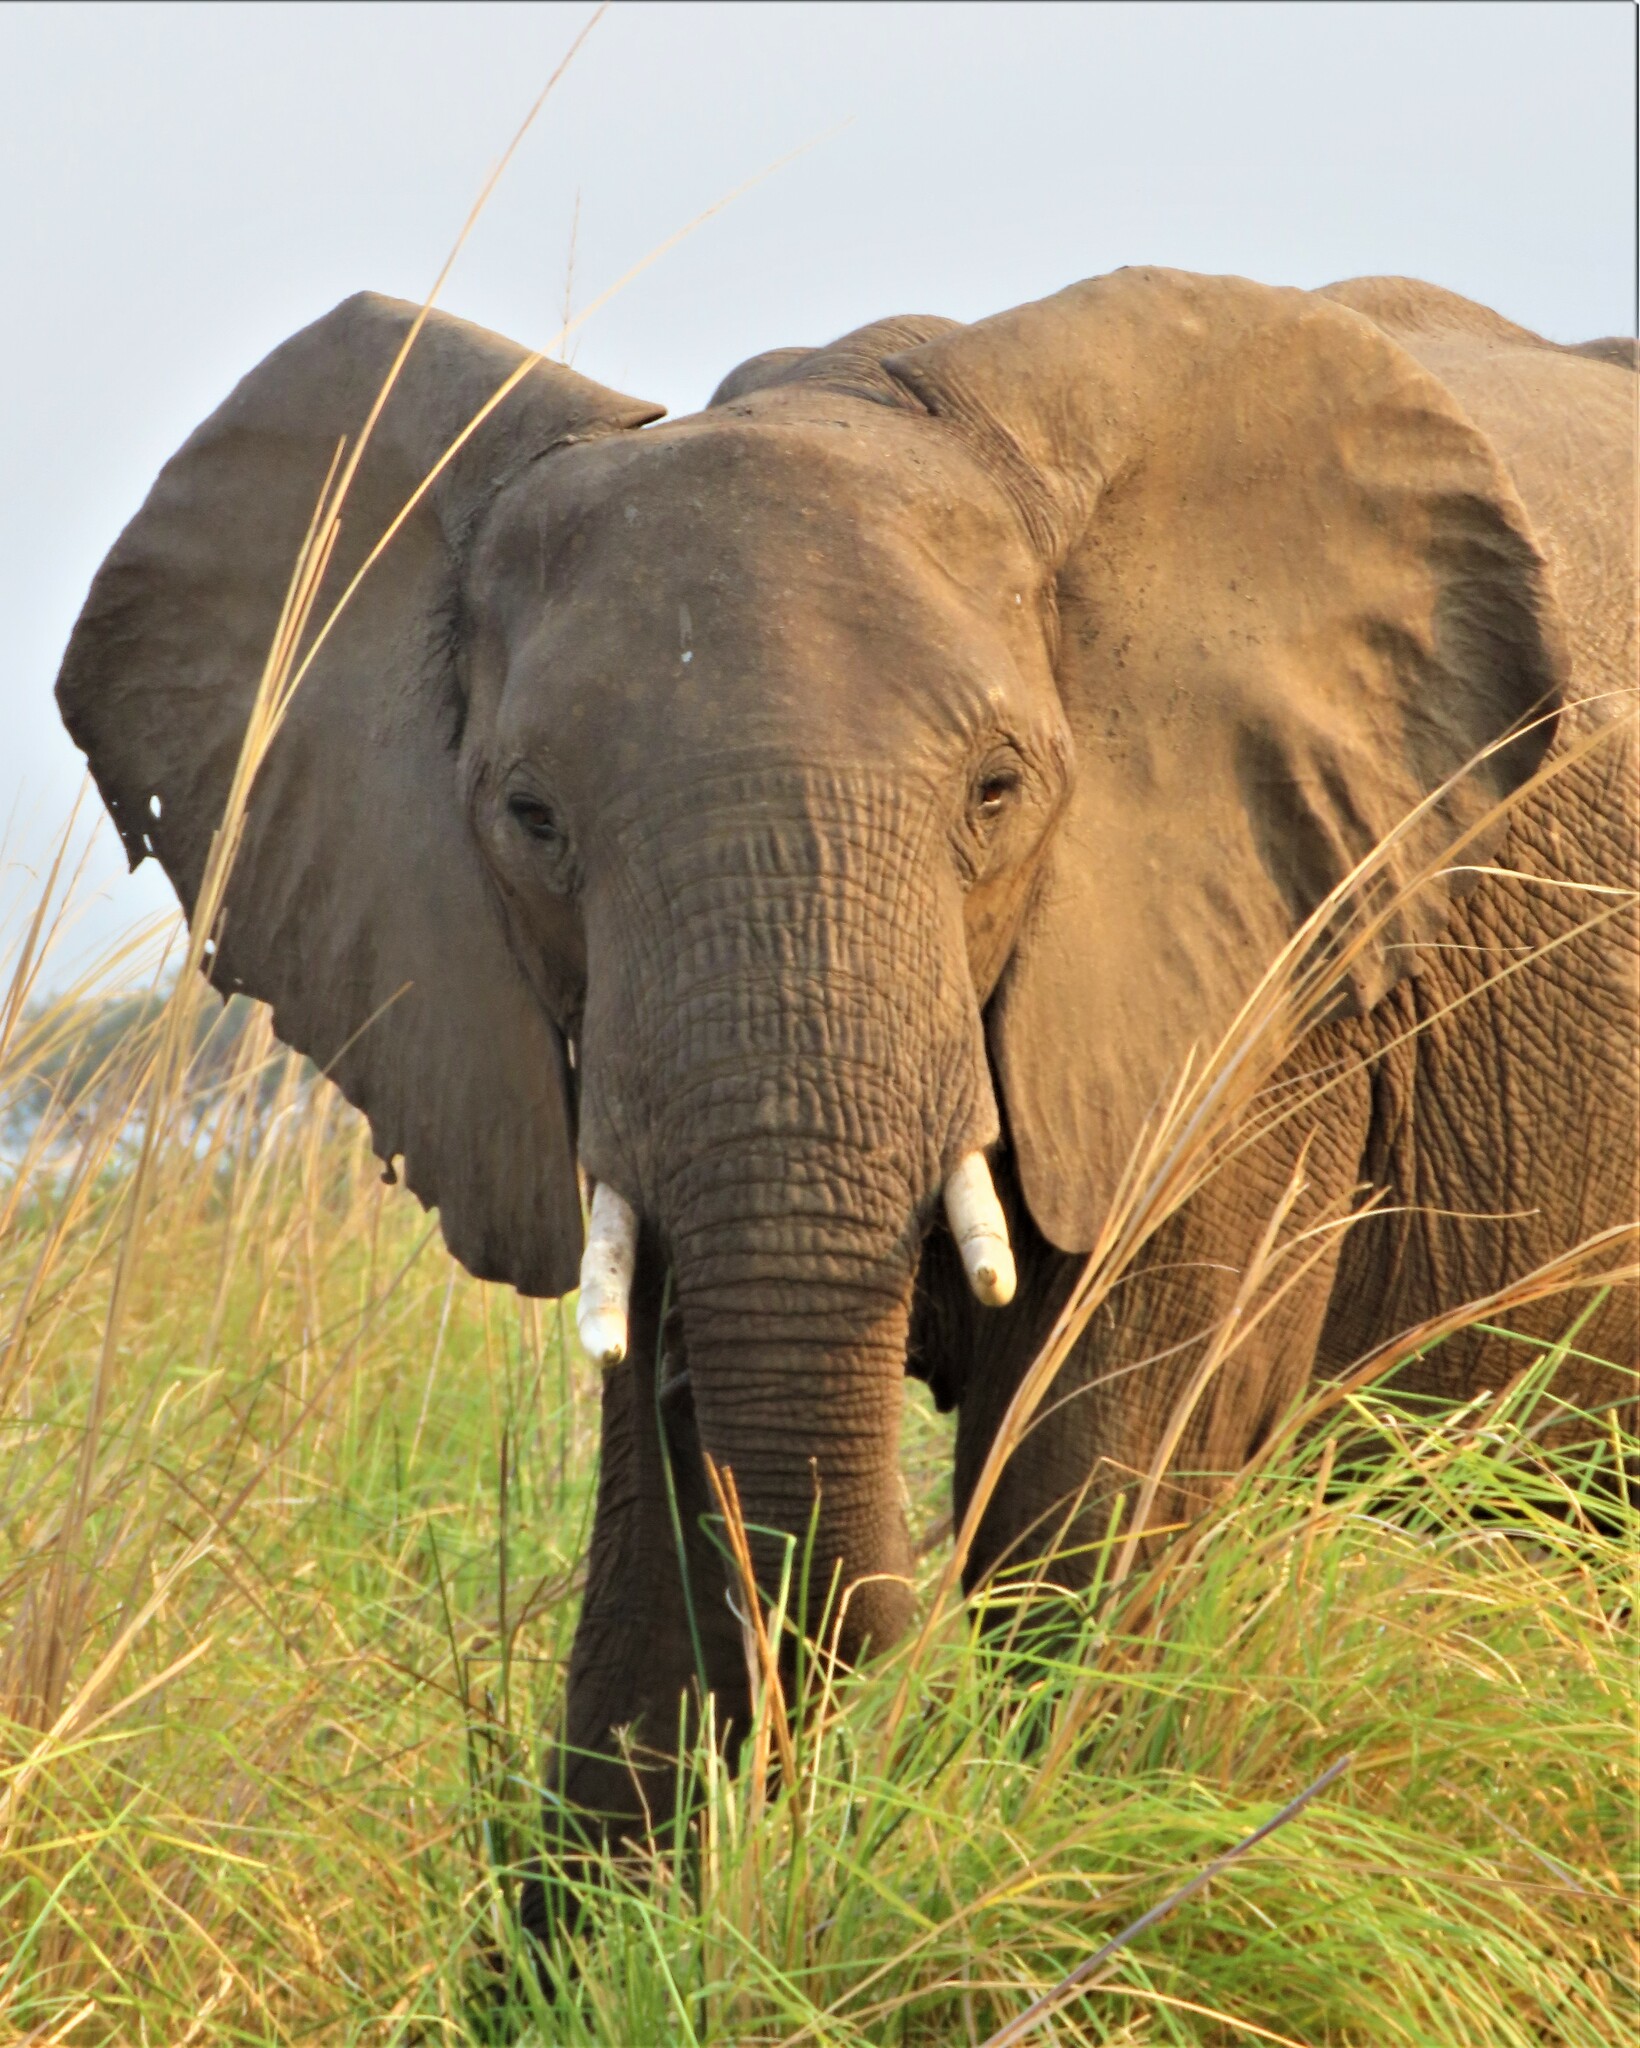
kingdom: Animalia
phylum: Chordata
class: Mammalia
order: Proboscidea
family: Elephantidae
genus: Loxodonta
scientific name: Loxodonta africana
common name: African elephant
